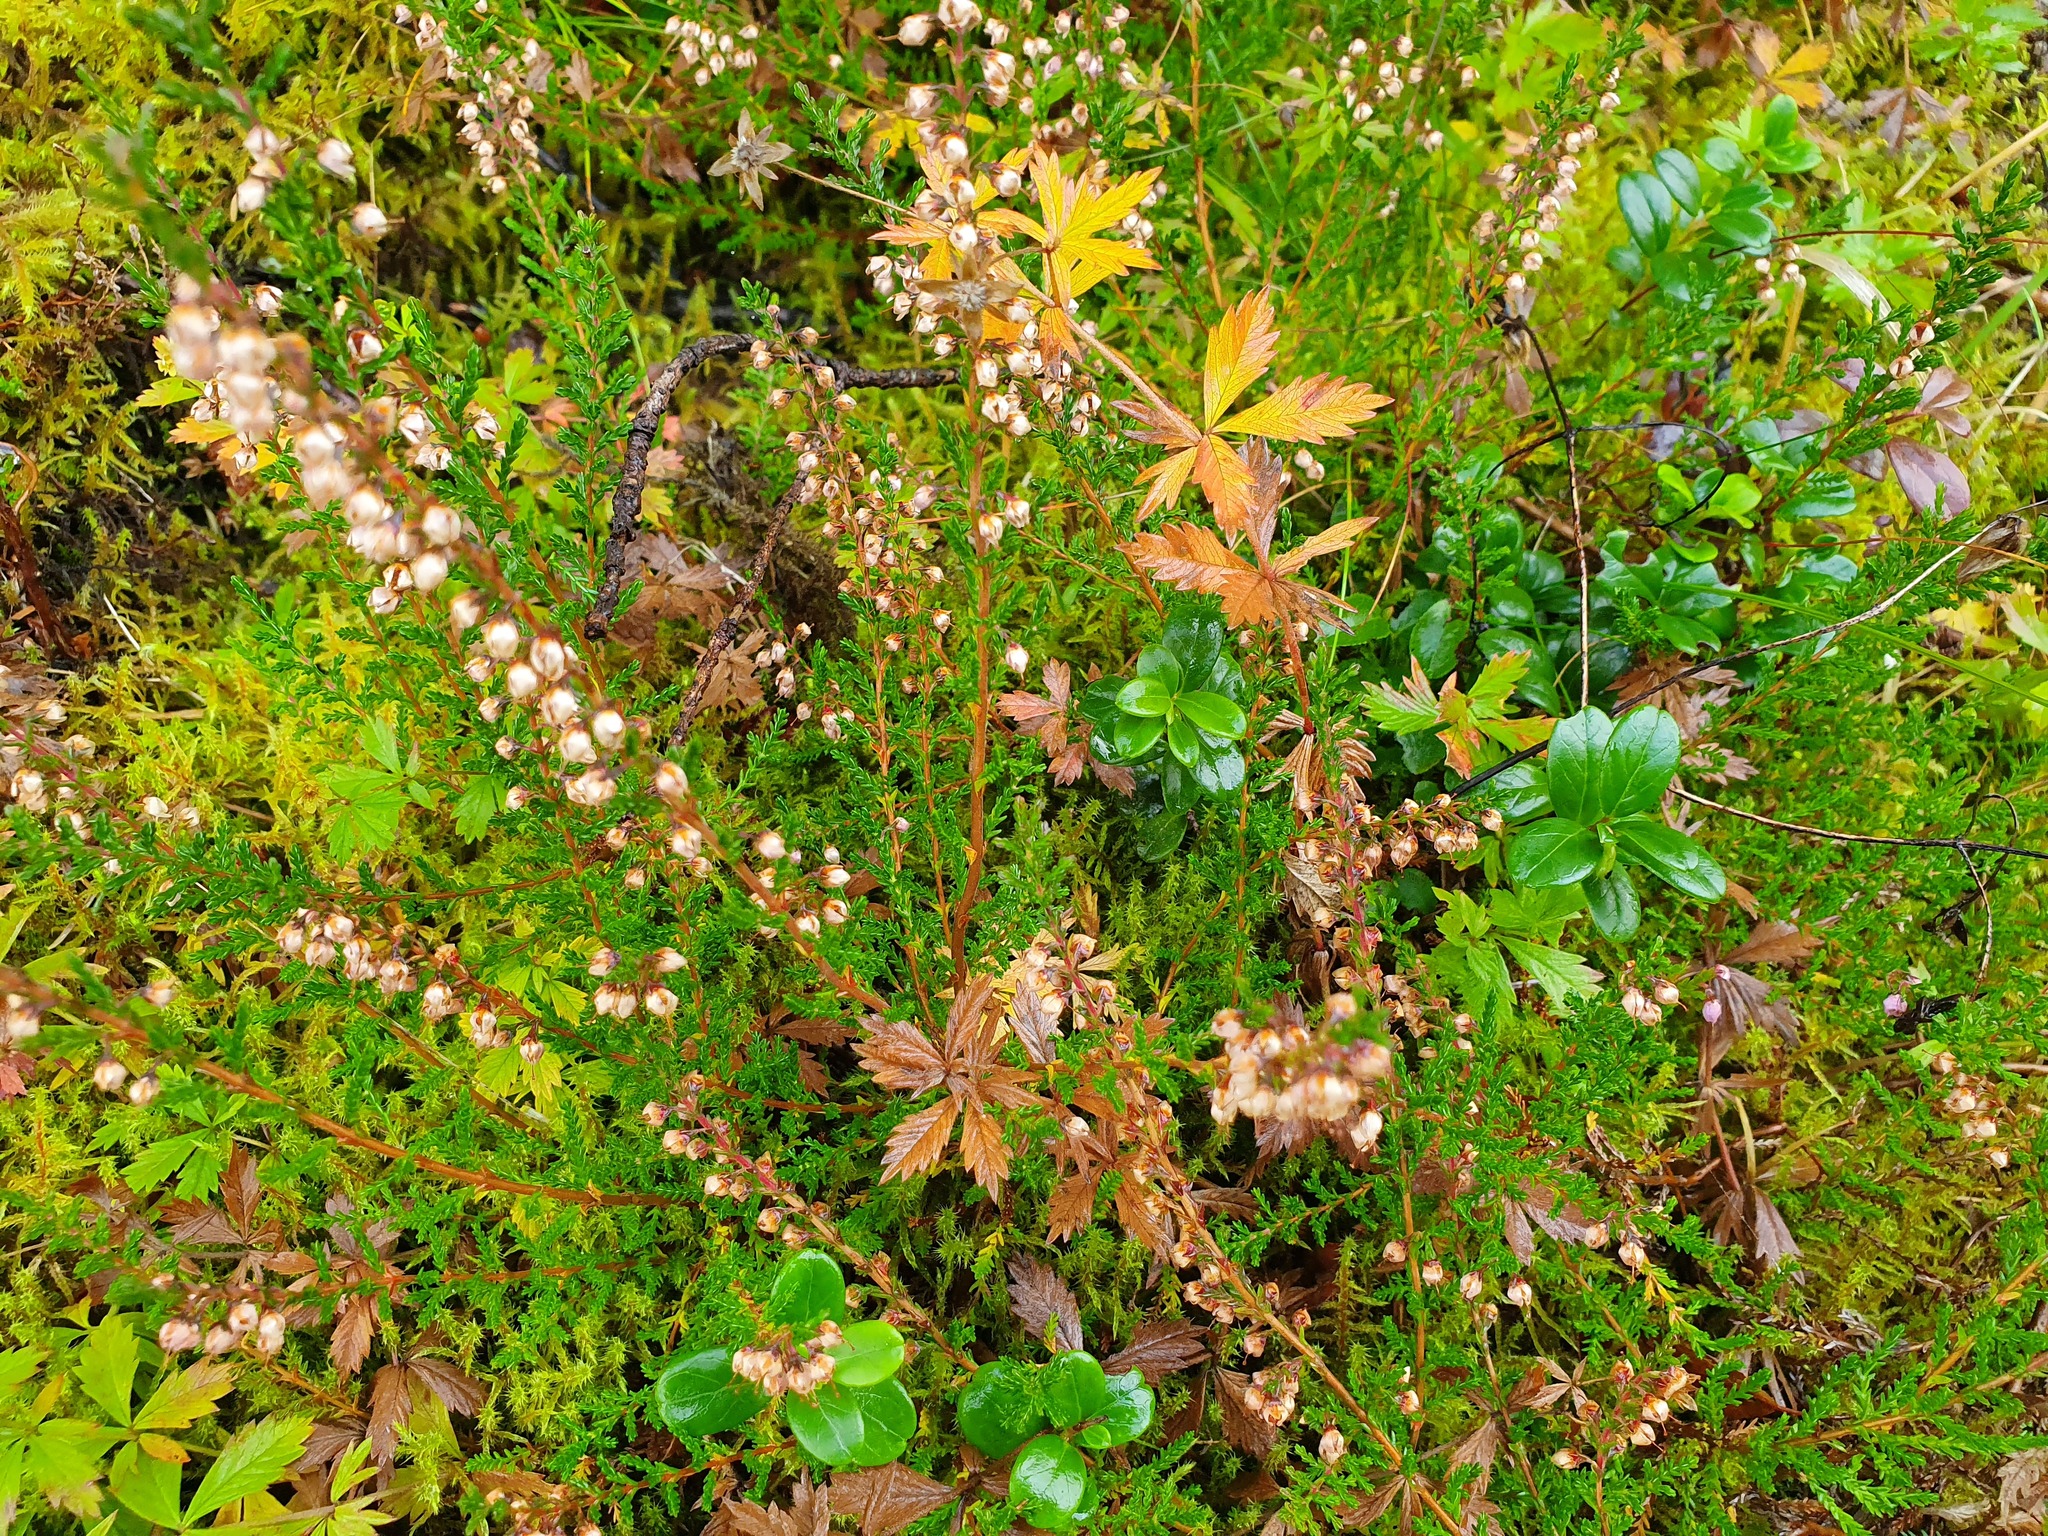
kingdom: Plantae
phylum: Tracheophyta
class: Magnoliopsida
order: Ericales
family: Ericaceae
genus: Vaccinium
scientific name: Vaccinium vitis-idaea
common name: Cowberry
